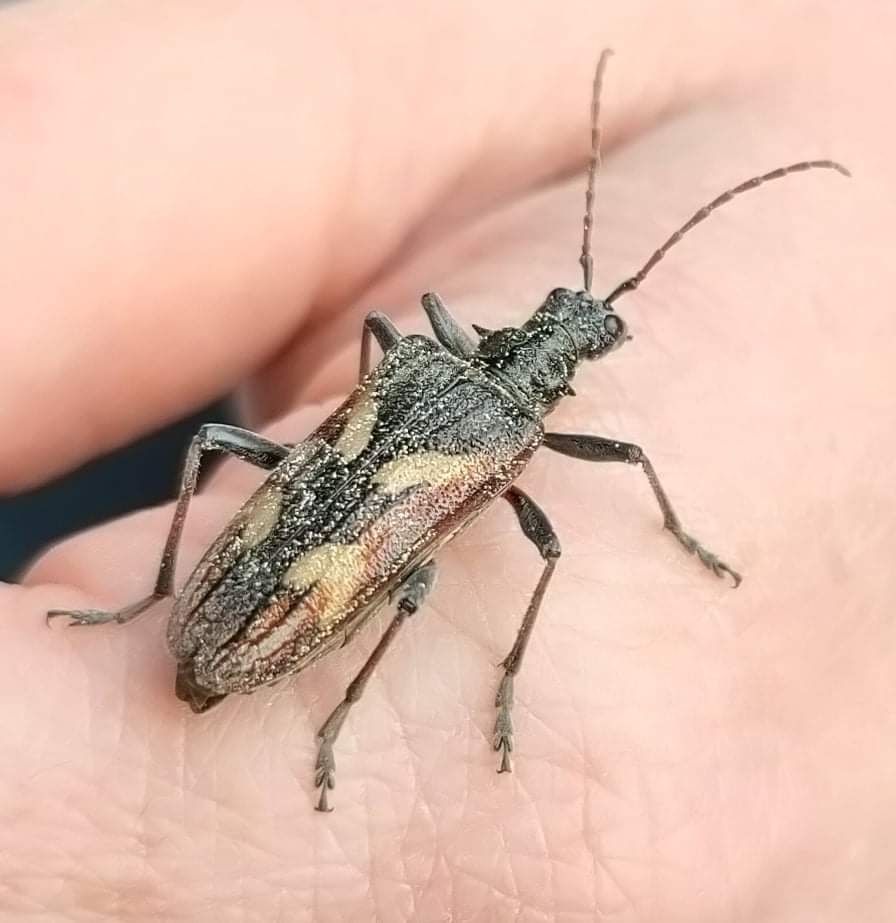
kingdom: Animalia
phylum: Arthropoda
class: Insecta
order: Coleoptera
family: Cerambycidae
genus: Rhagium
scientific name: Rhagium bifasciatum
